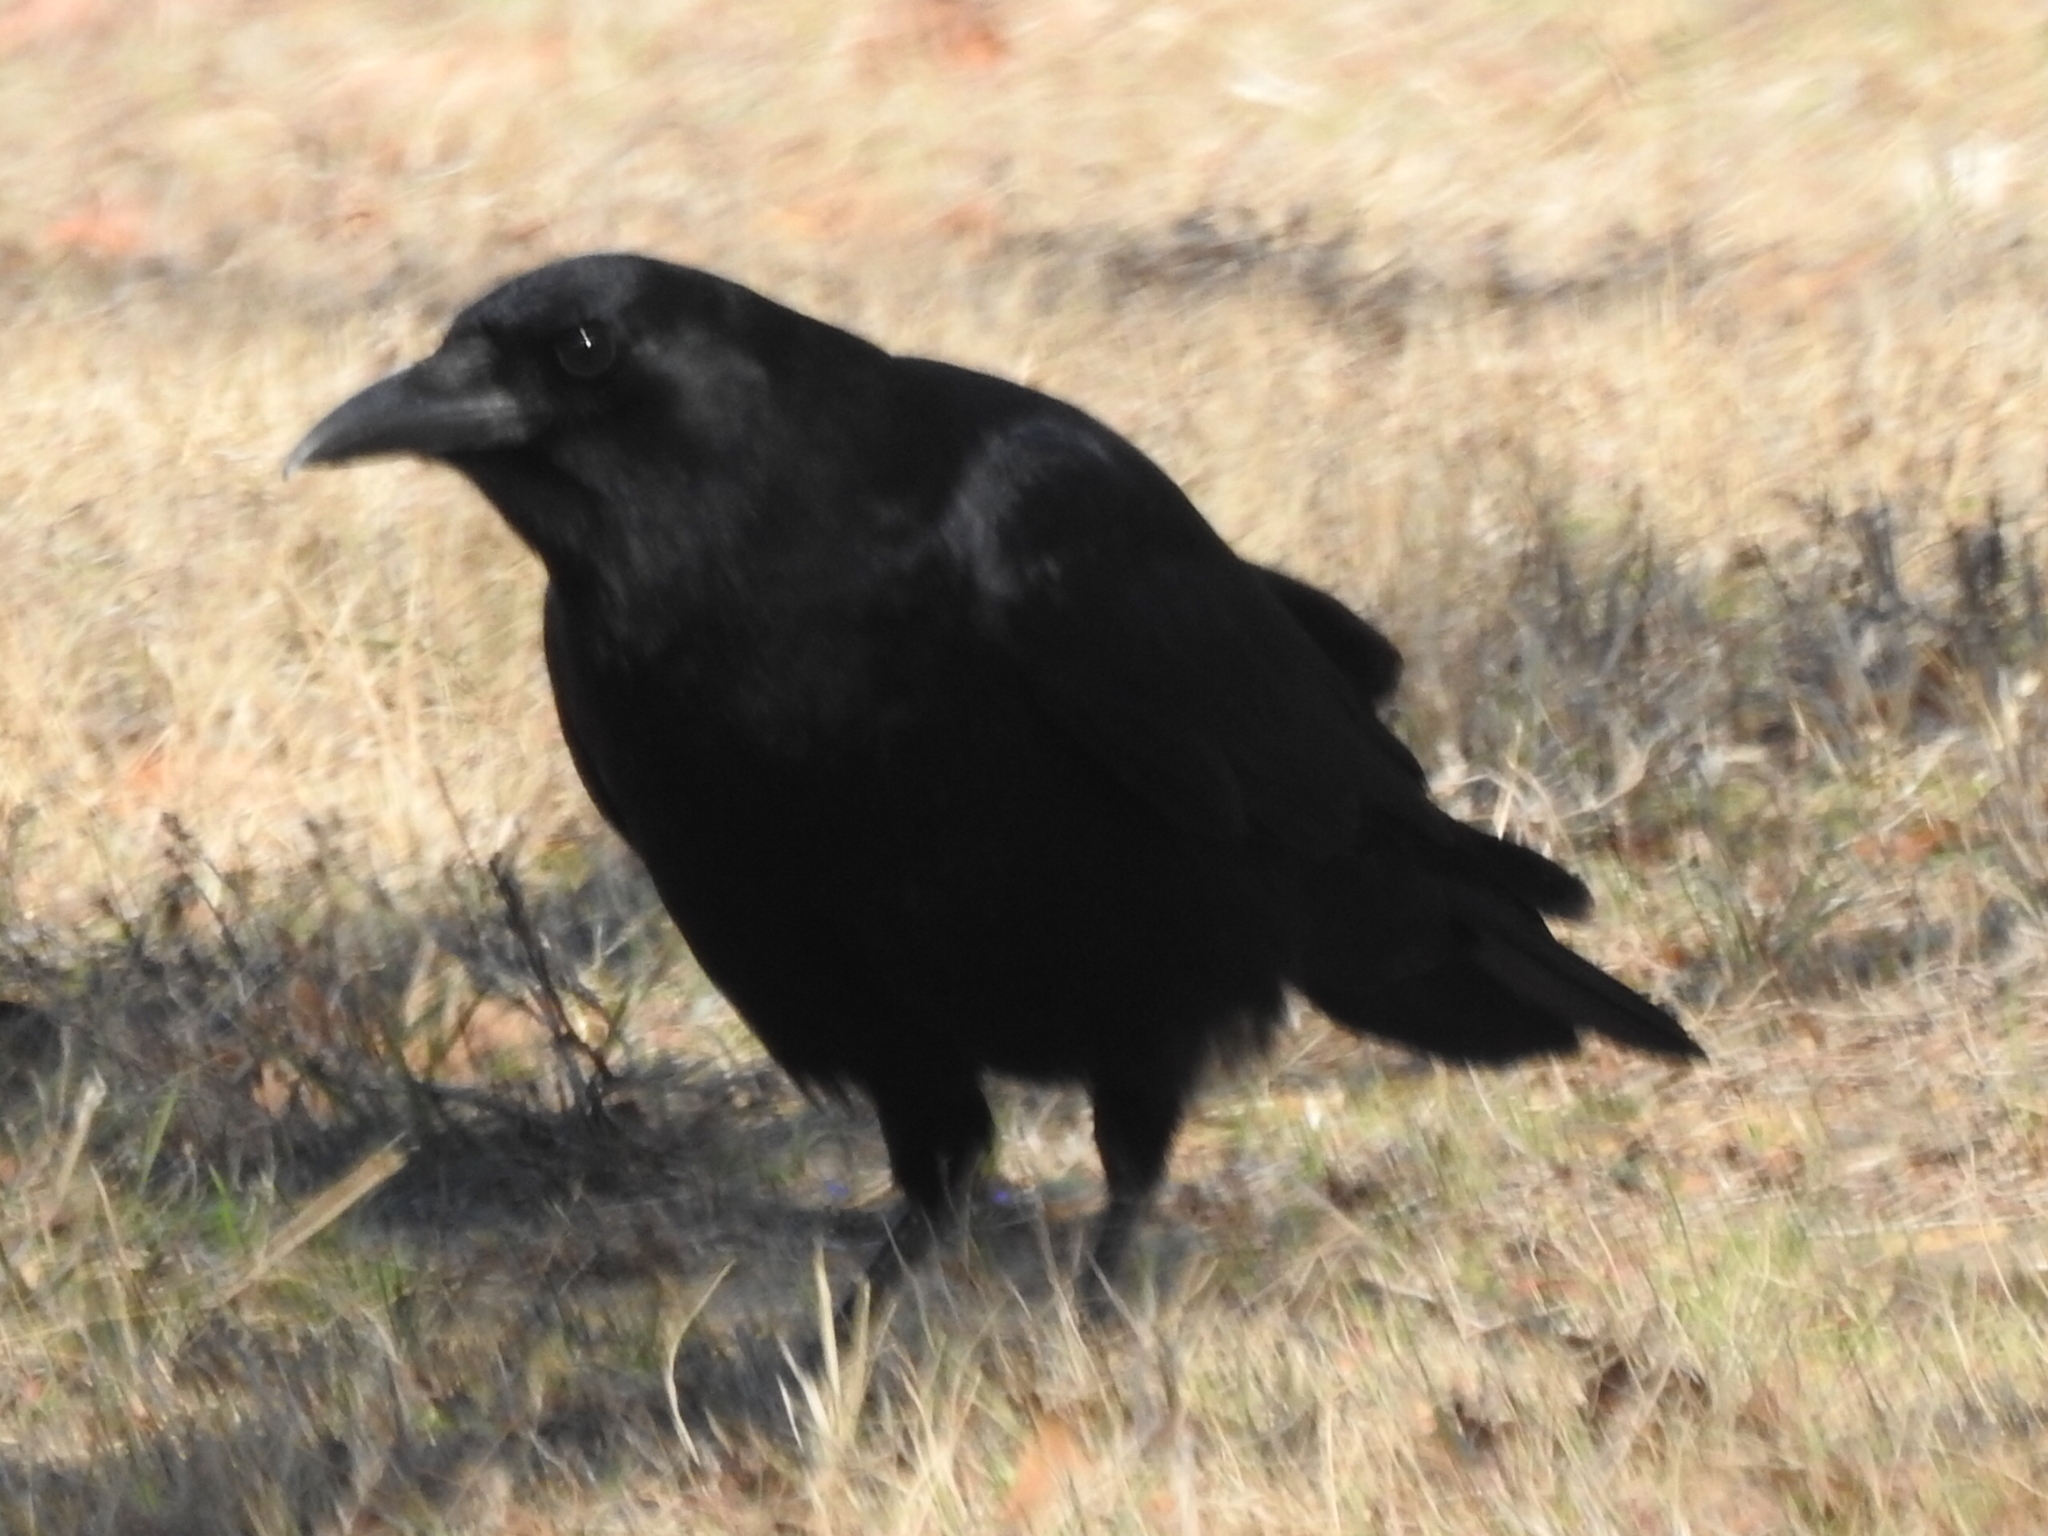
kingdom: Animalia
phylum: Chordata
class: Aves
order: Passeriformes
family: Corvidae
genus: Corvus
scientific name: Corvus brachyrhynchos
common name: American crow
